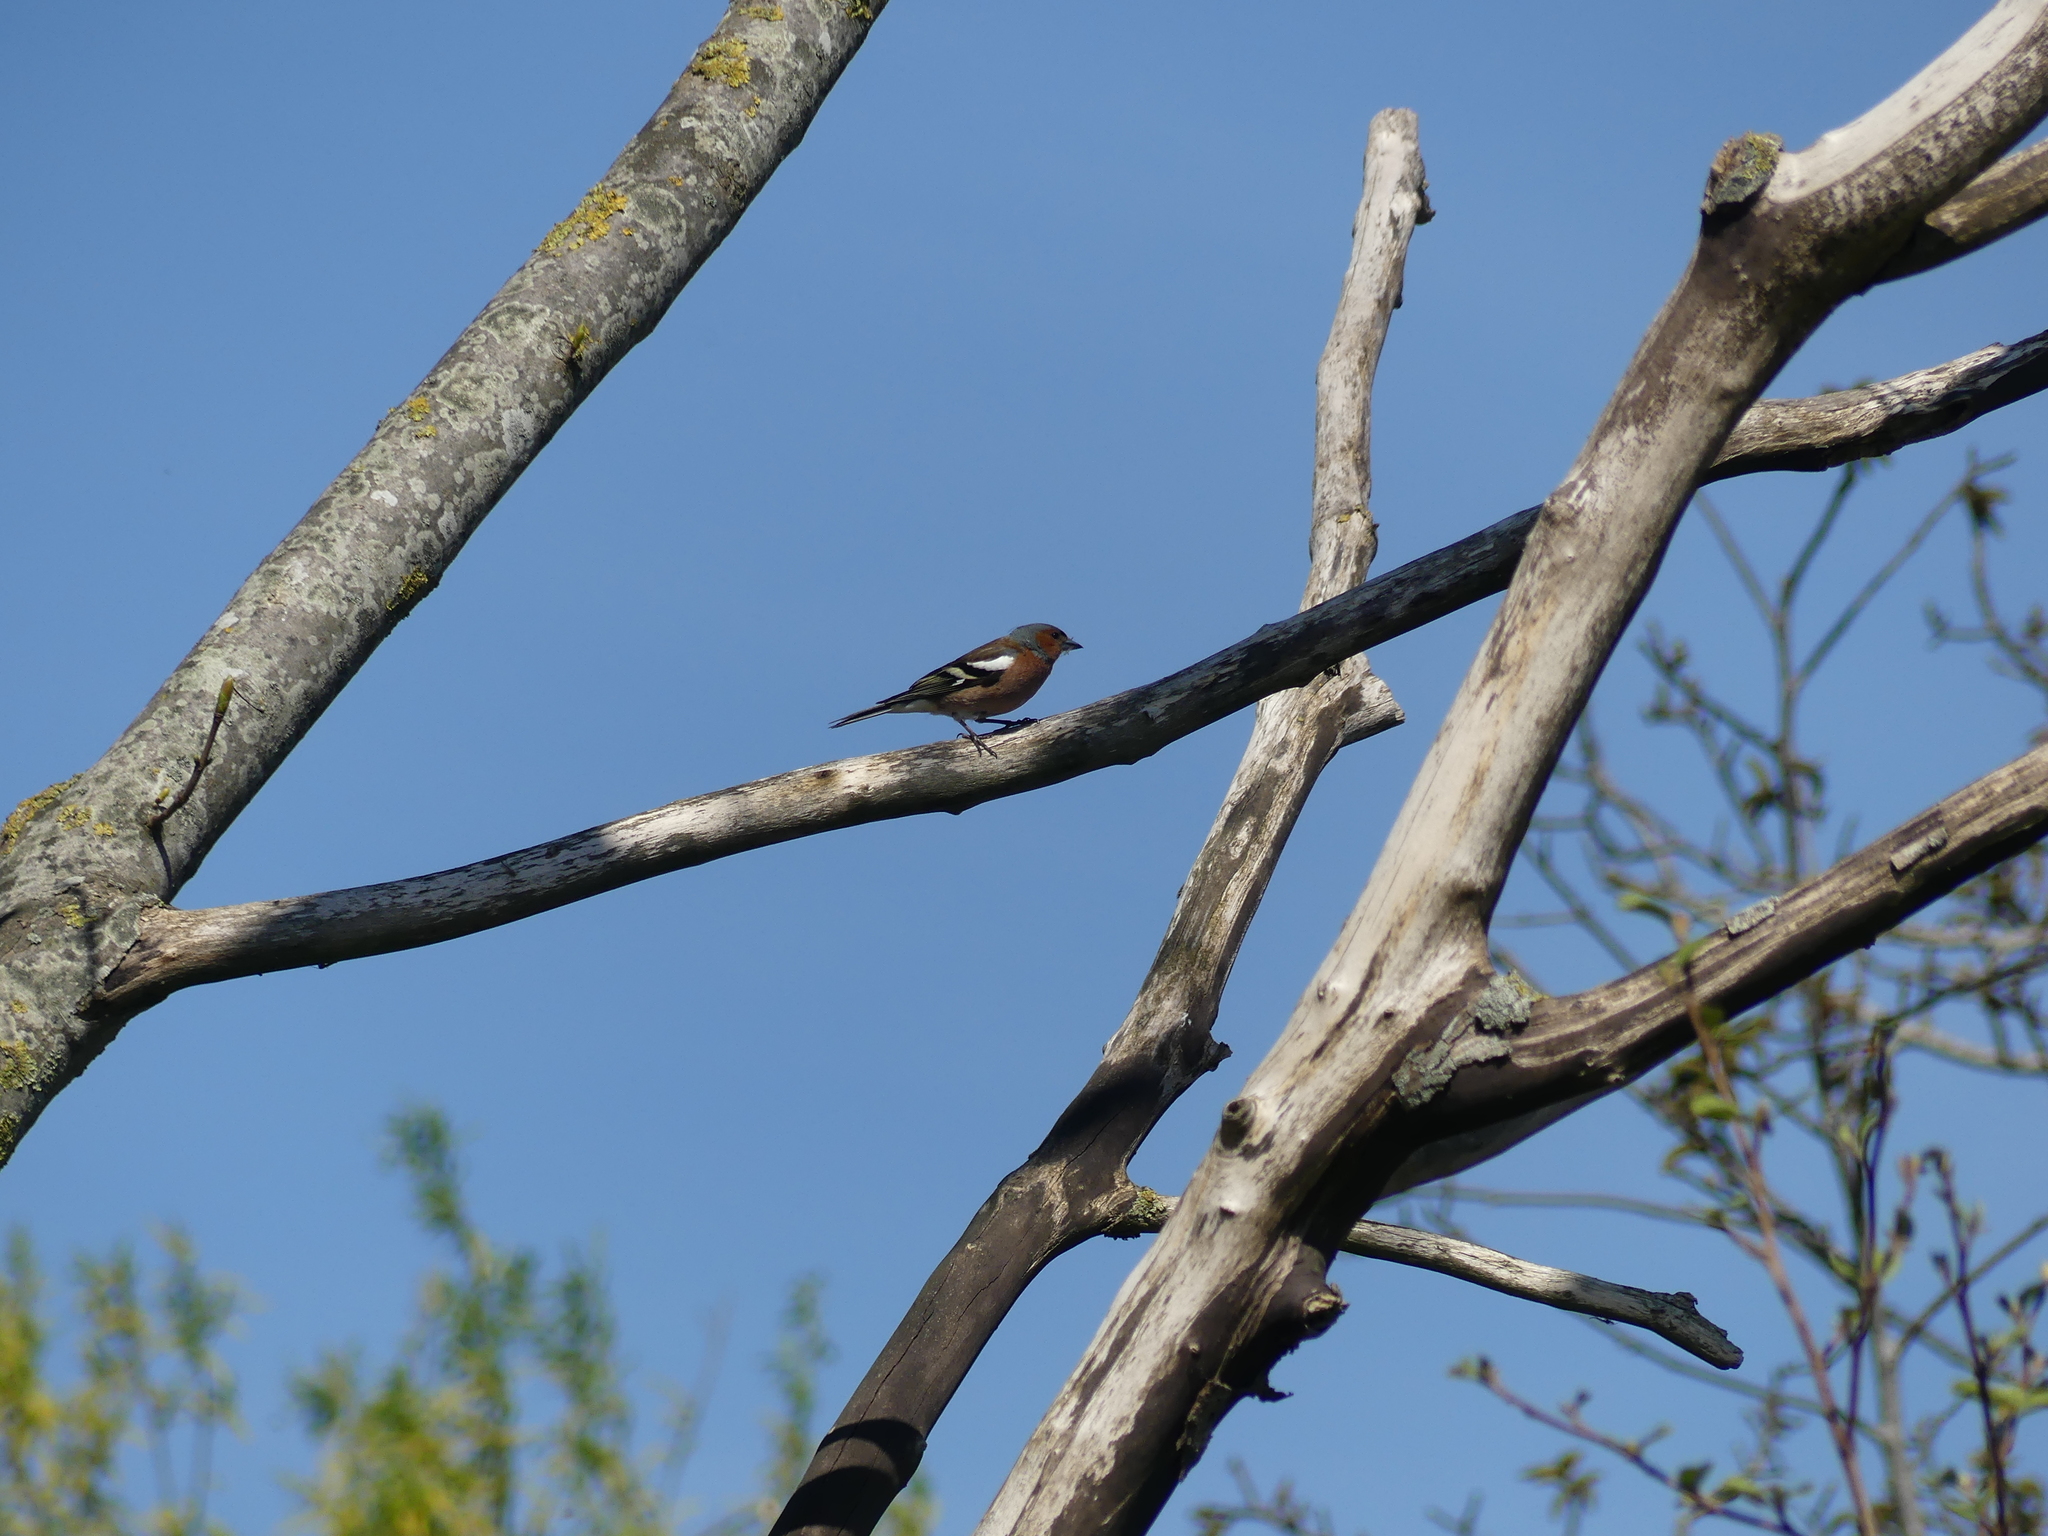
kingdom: Animalia
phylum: Chordata
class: Aves
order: Passeriformes
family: Fringillidae
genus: Fringilla
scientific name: Fringilla coelebs
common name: Common chaffinch
